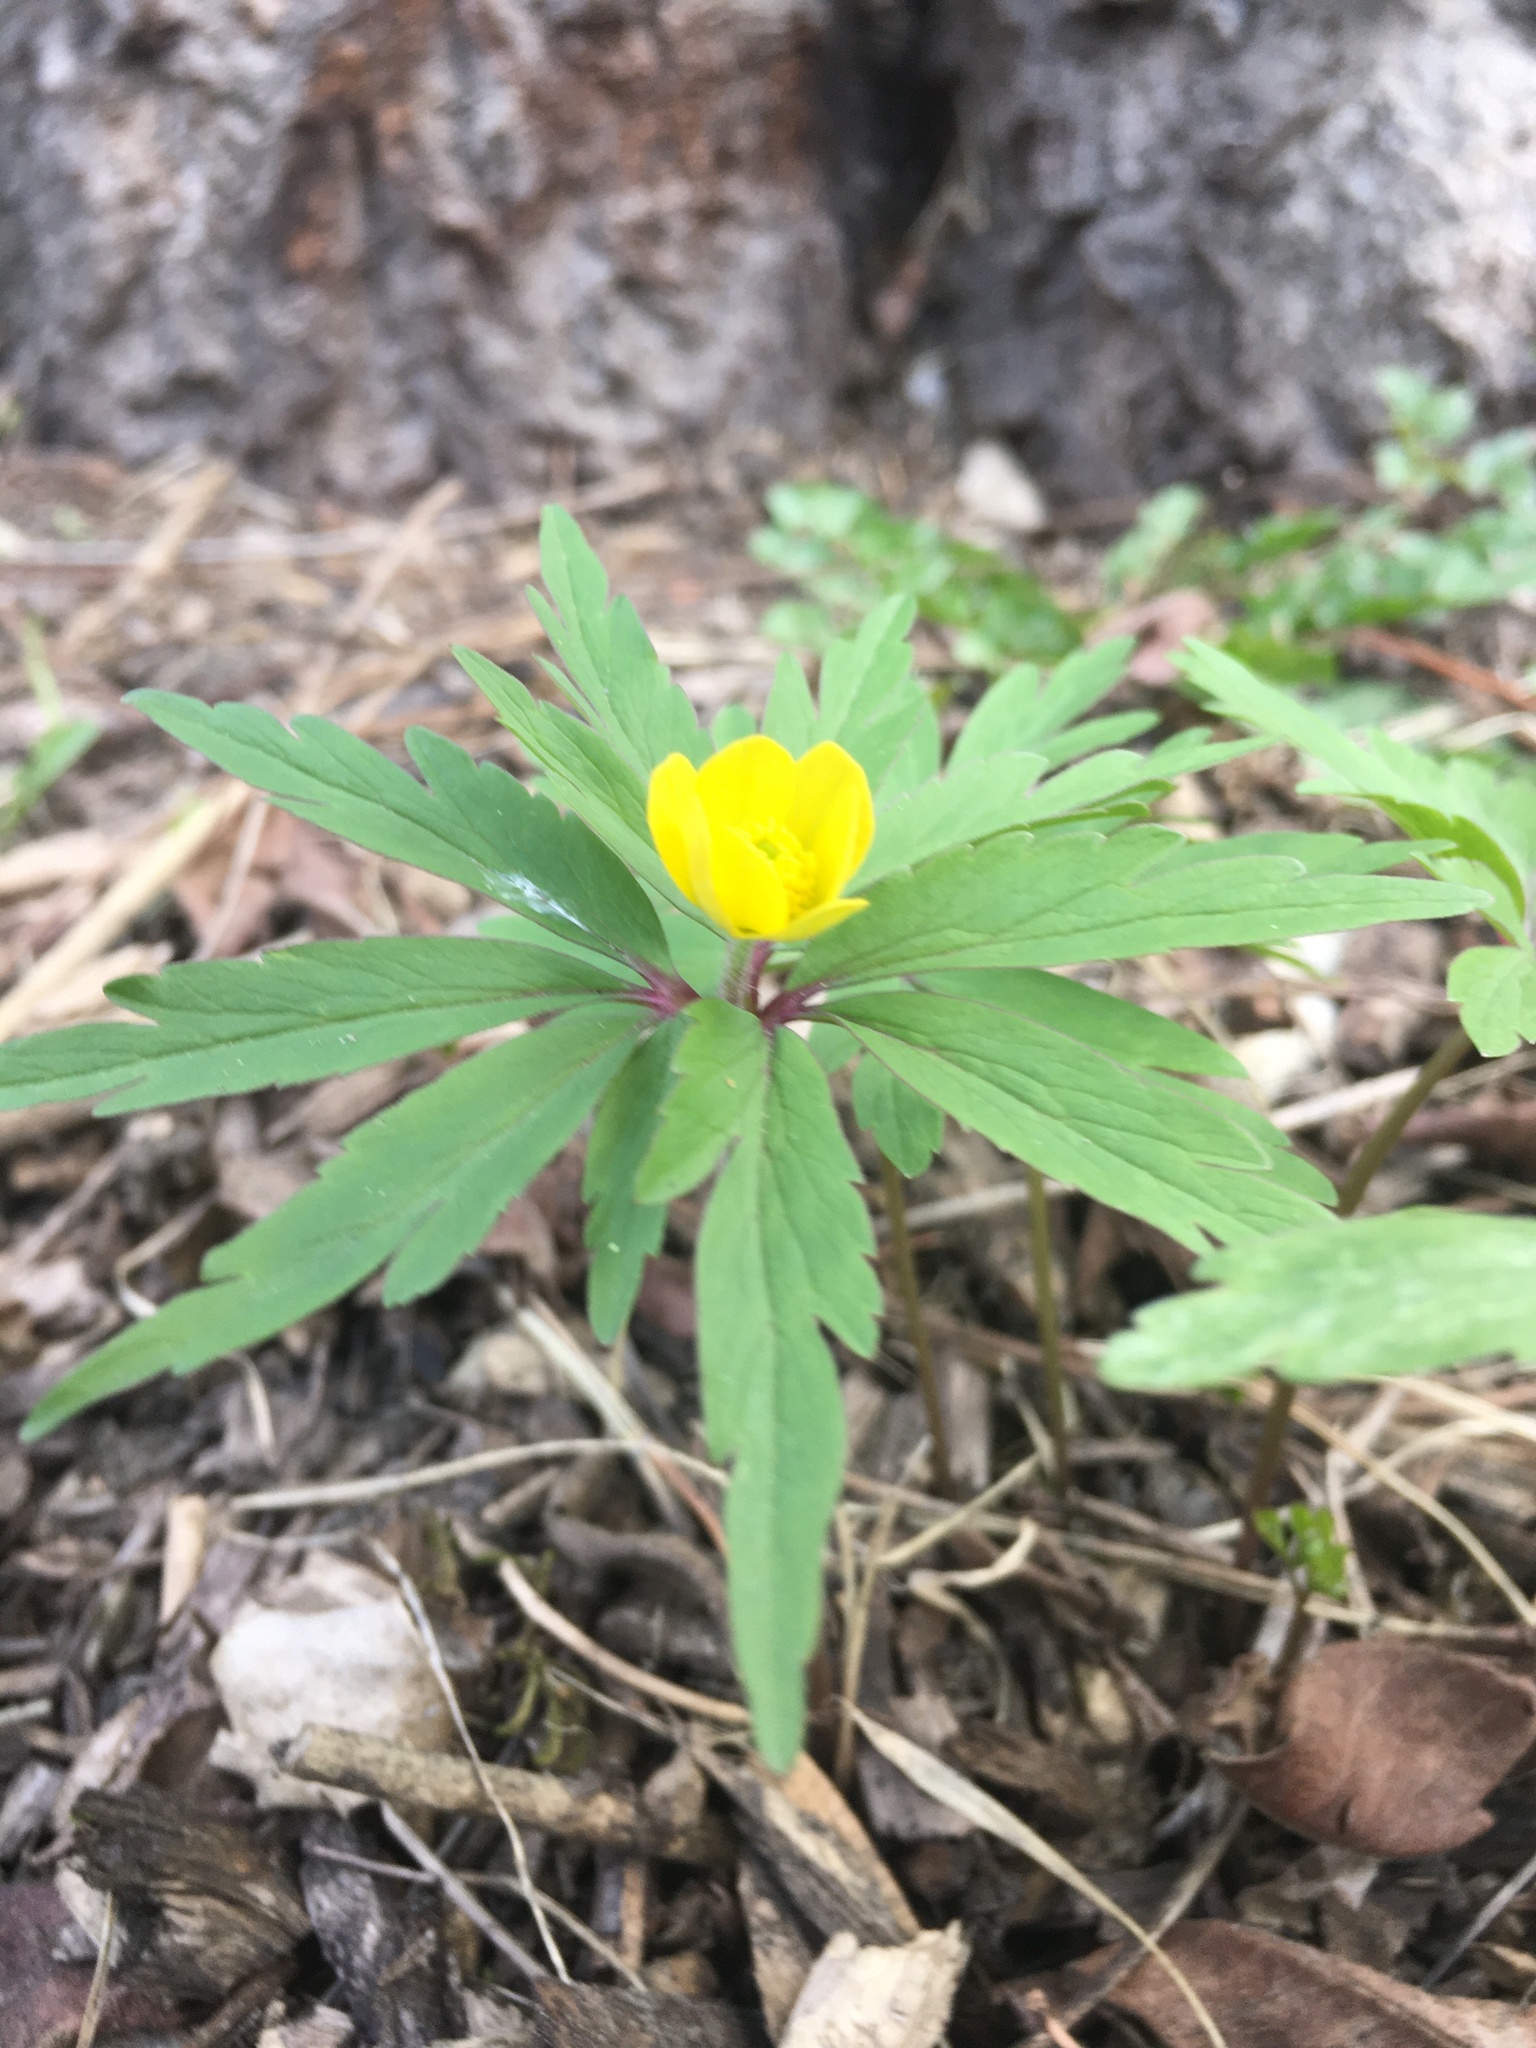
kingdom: Plantae
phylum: Tracheophyta
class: Magnoliopsida
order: Ranunculales
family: Ranunculaceae
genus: Anemone
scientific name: Anemone ranunculoides
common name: Yellow anemone
